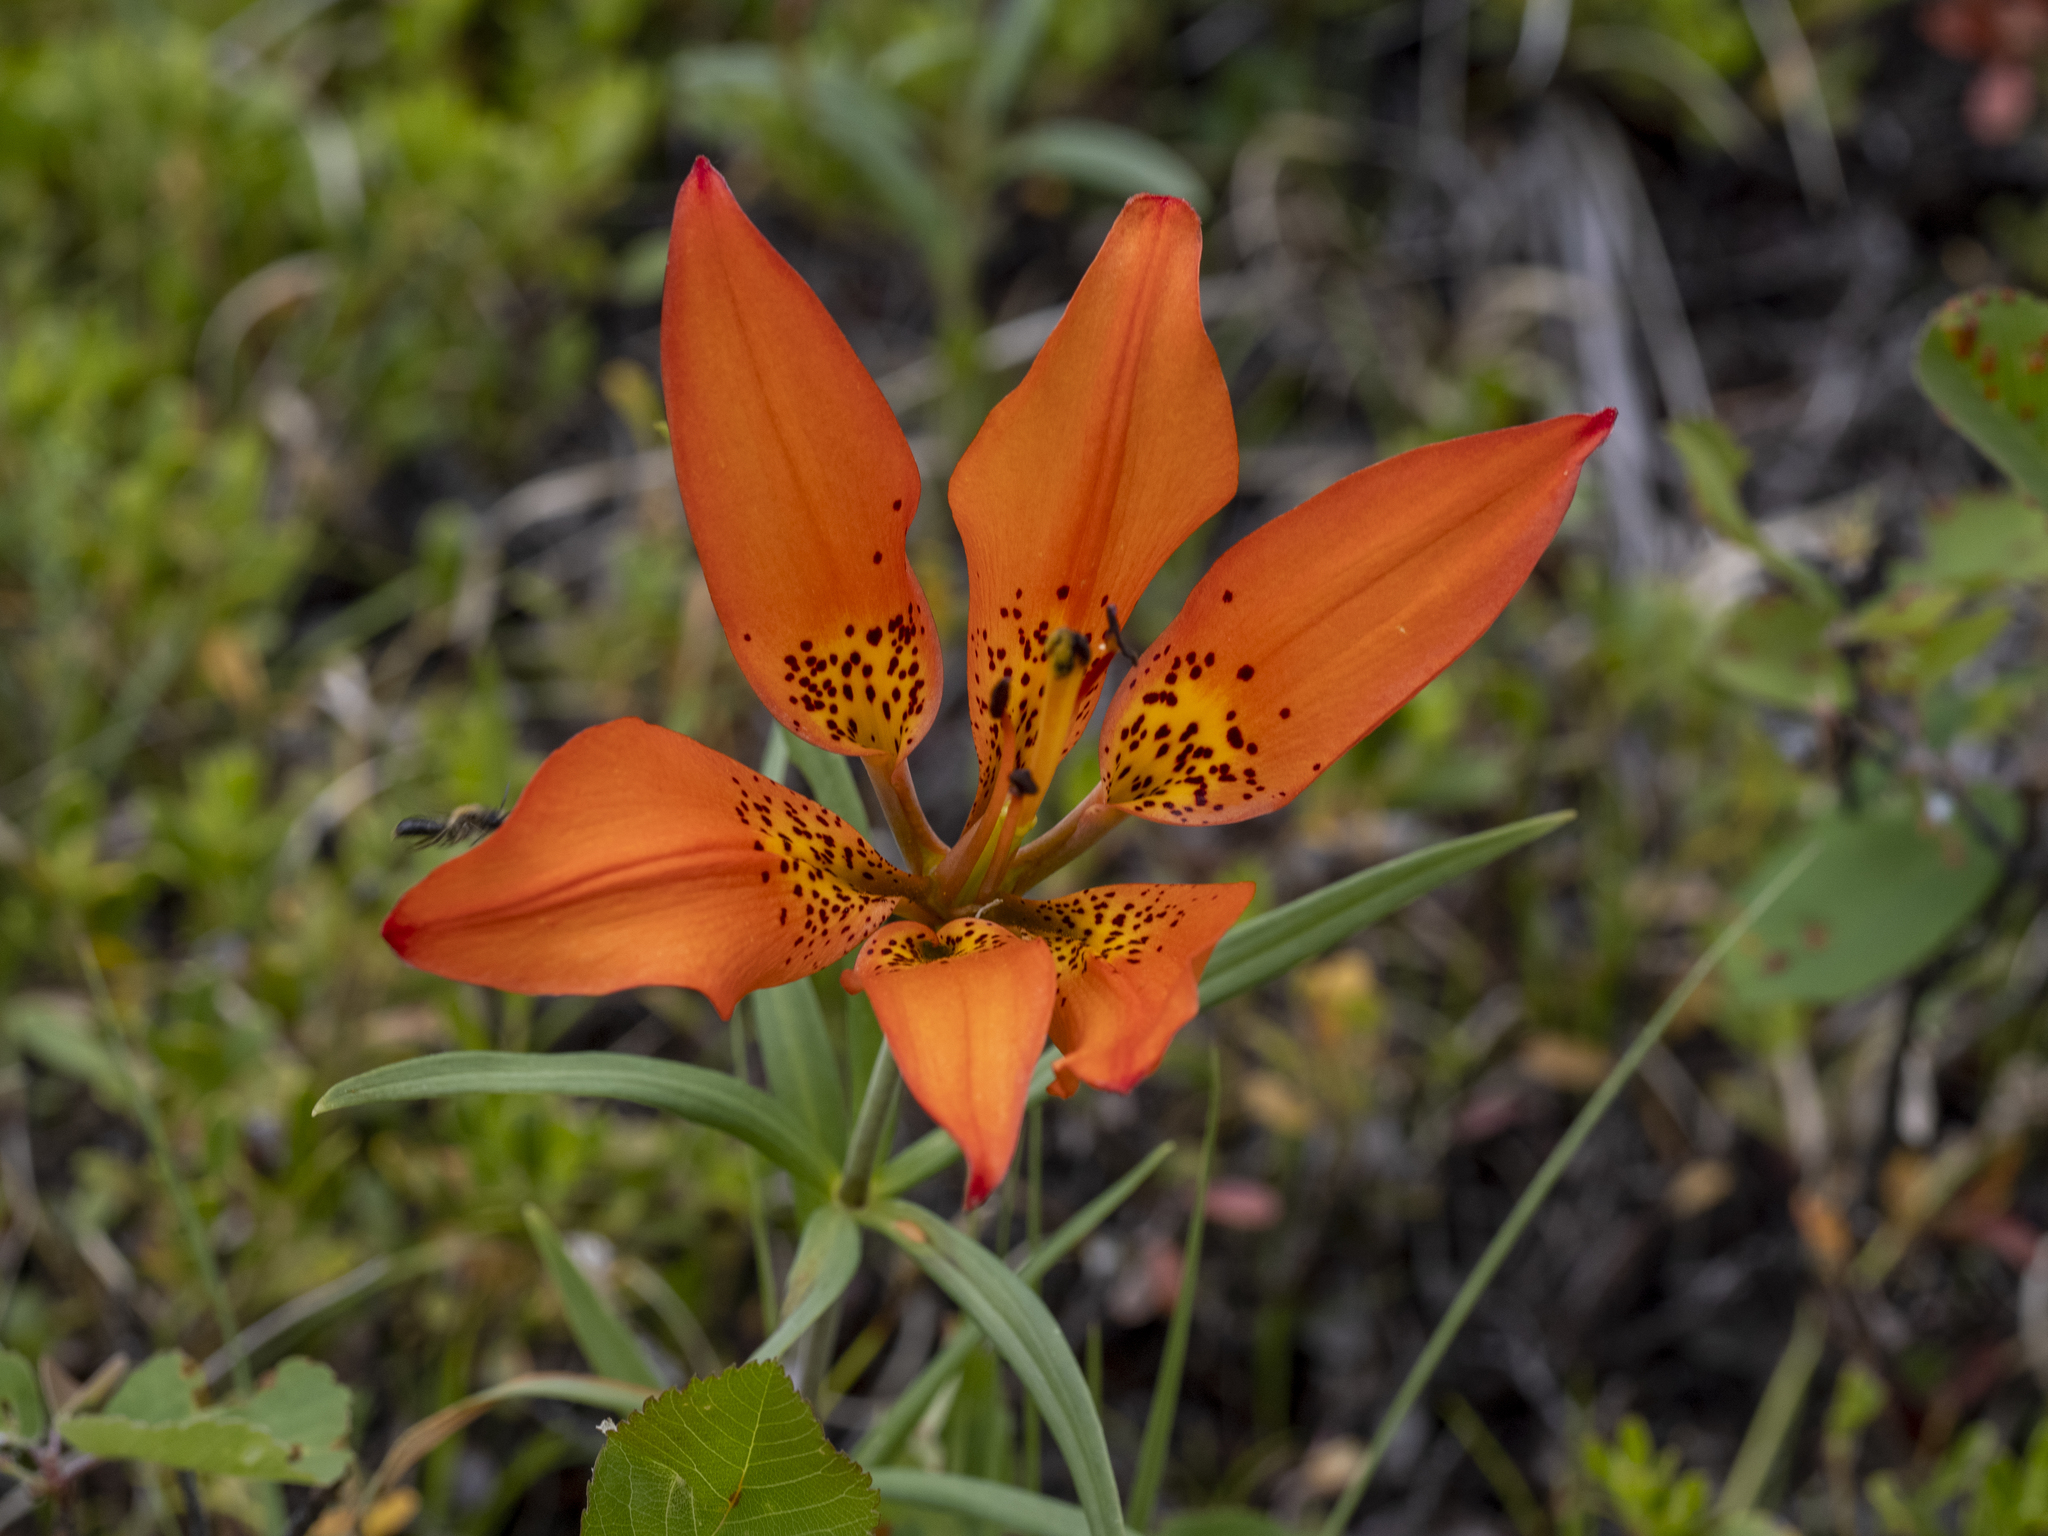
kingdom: Plantae
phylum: Tracheophyta
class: Liliopsida
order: Liliales
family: Liliaceae
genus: Lilium
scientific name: Lilium philadelphicum
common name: Red lily
